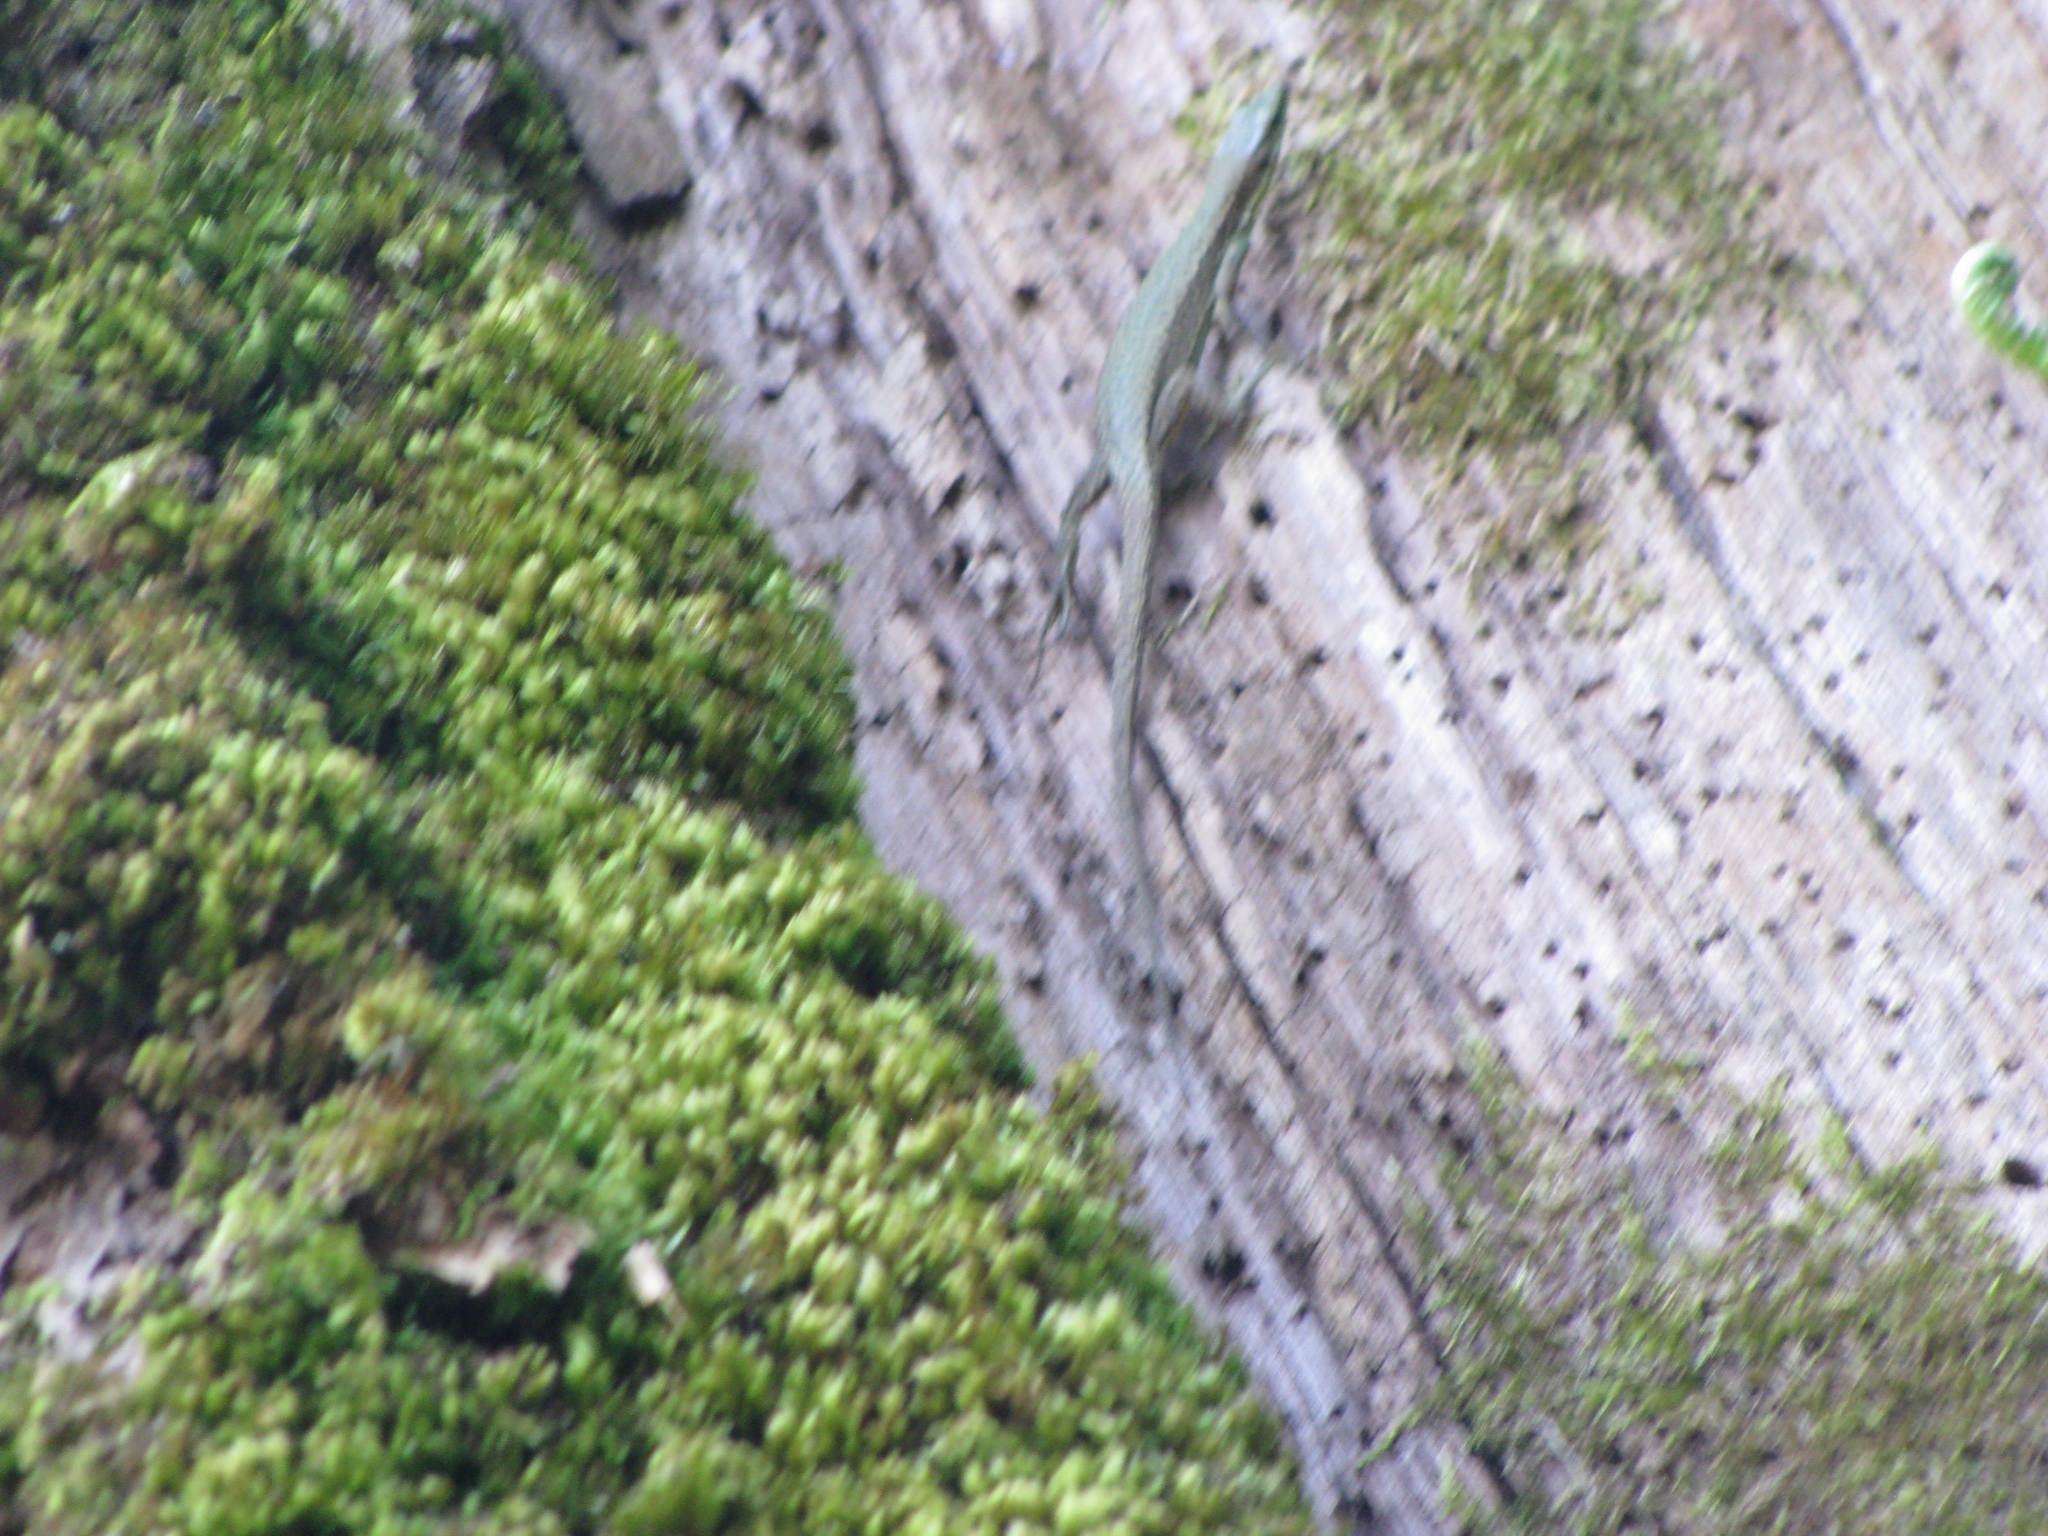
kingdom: Animalia
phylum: Chordata
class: Squamata
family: Lacertidae
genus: Darevskia
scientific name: Darevskia brauneri
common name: Brauner's rock lizard
